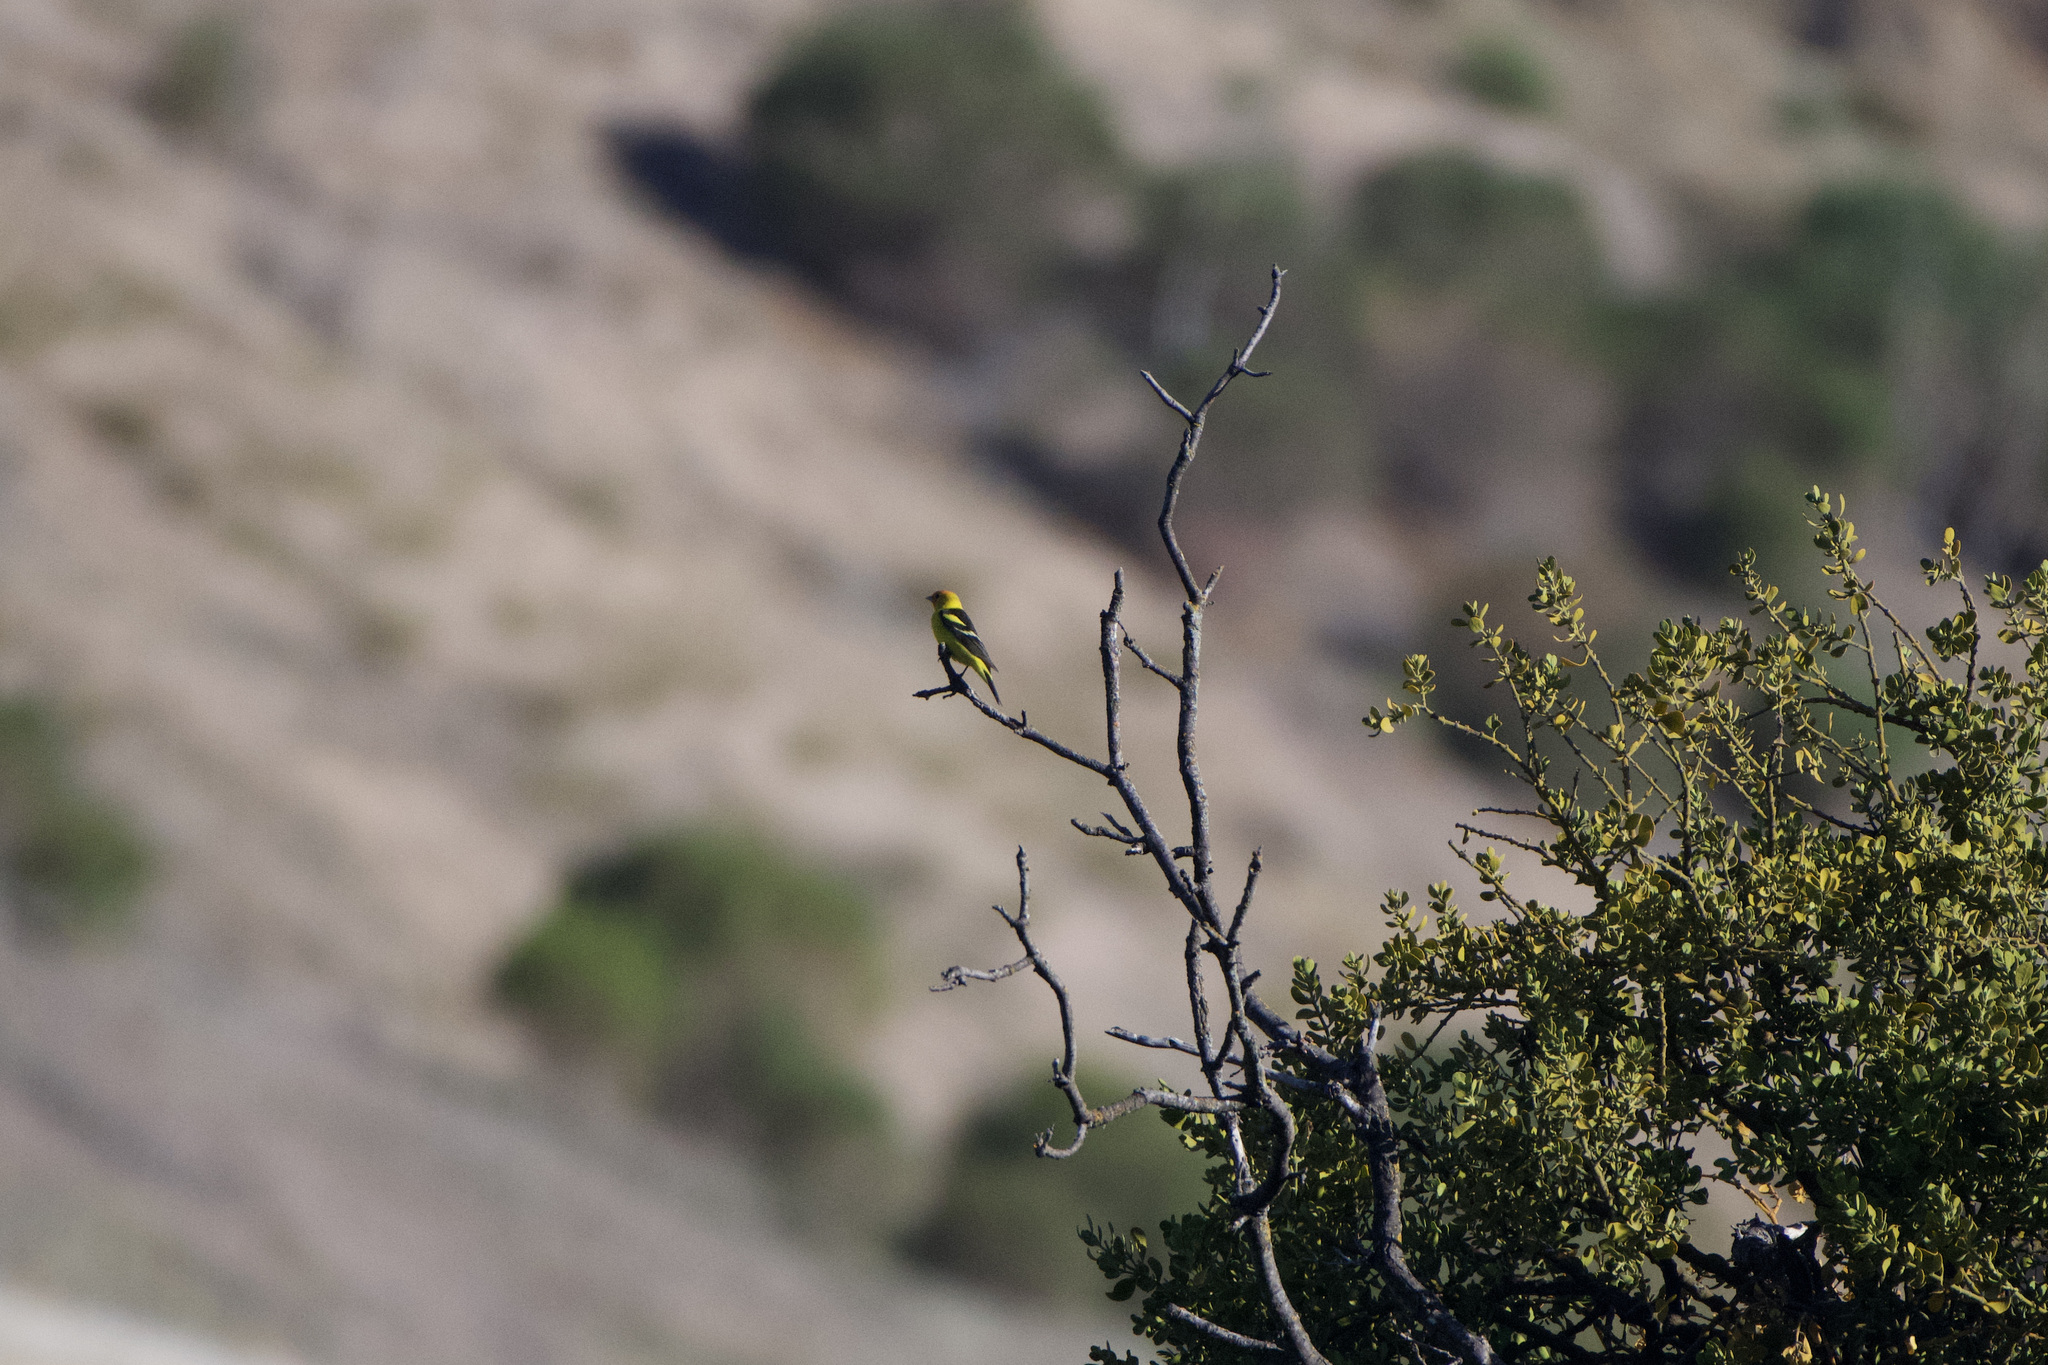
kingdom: Animalia
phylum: Chordata
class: Aves
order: Passeriformes
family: Cardinalidae
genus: Piranga
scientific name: Piranga ludoviciana
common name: Western tanager
